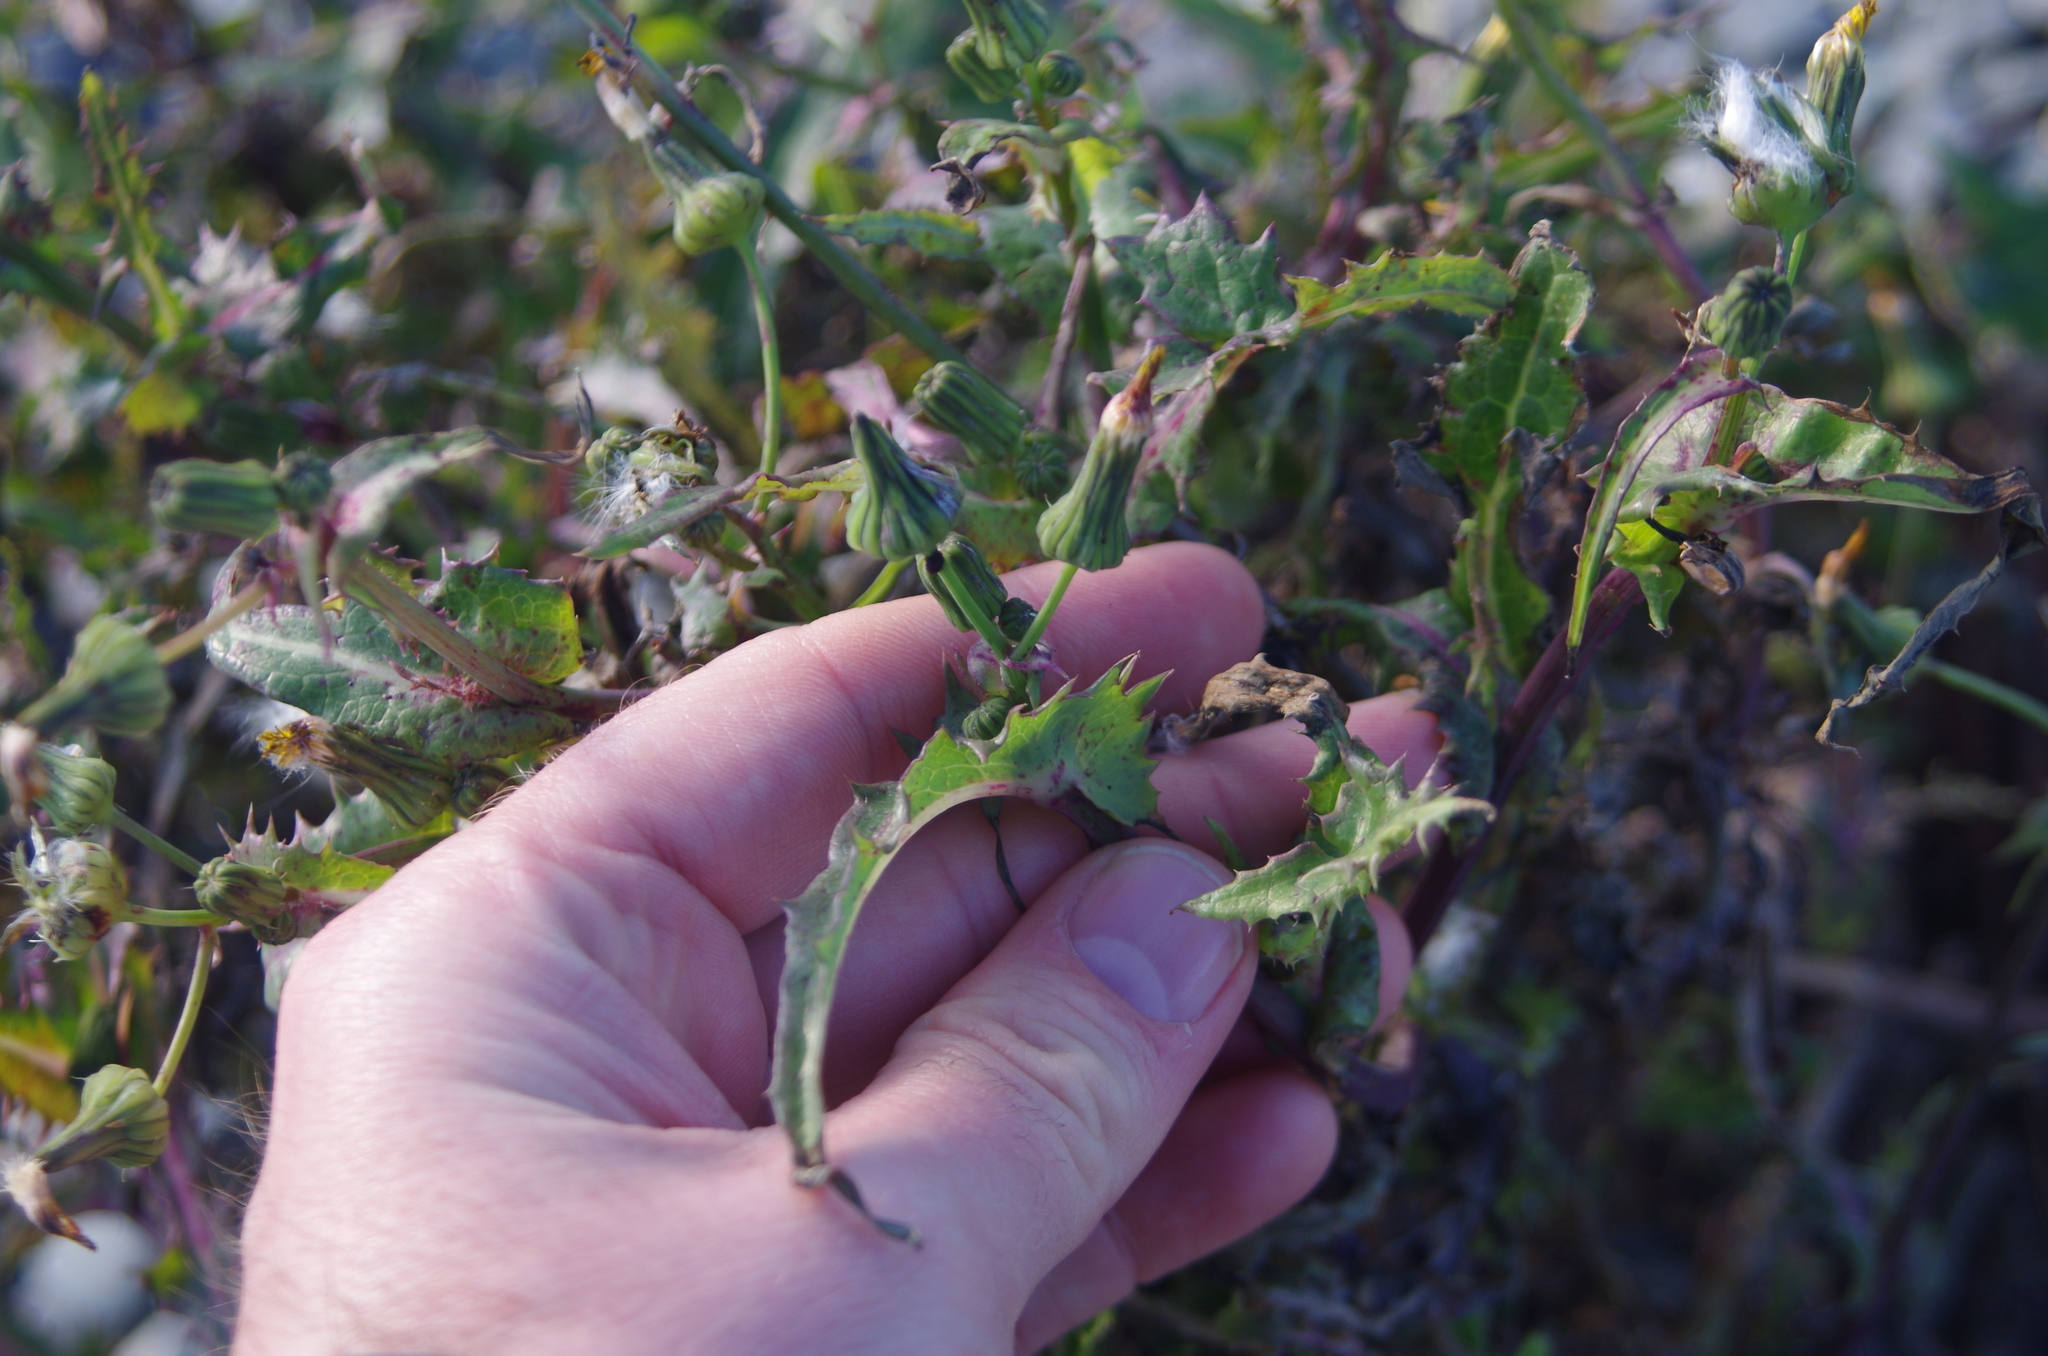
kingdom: Plantae
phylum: Tracheophyta
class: Magnoliopsida
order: Asterales
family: Asteraceae
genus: Sonchus
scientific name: Sonchus oleraceus
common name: Common sowthistle
